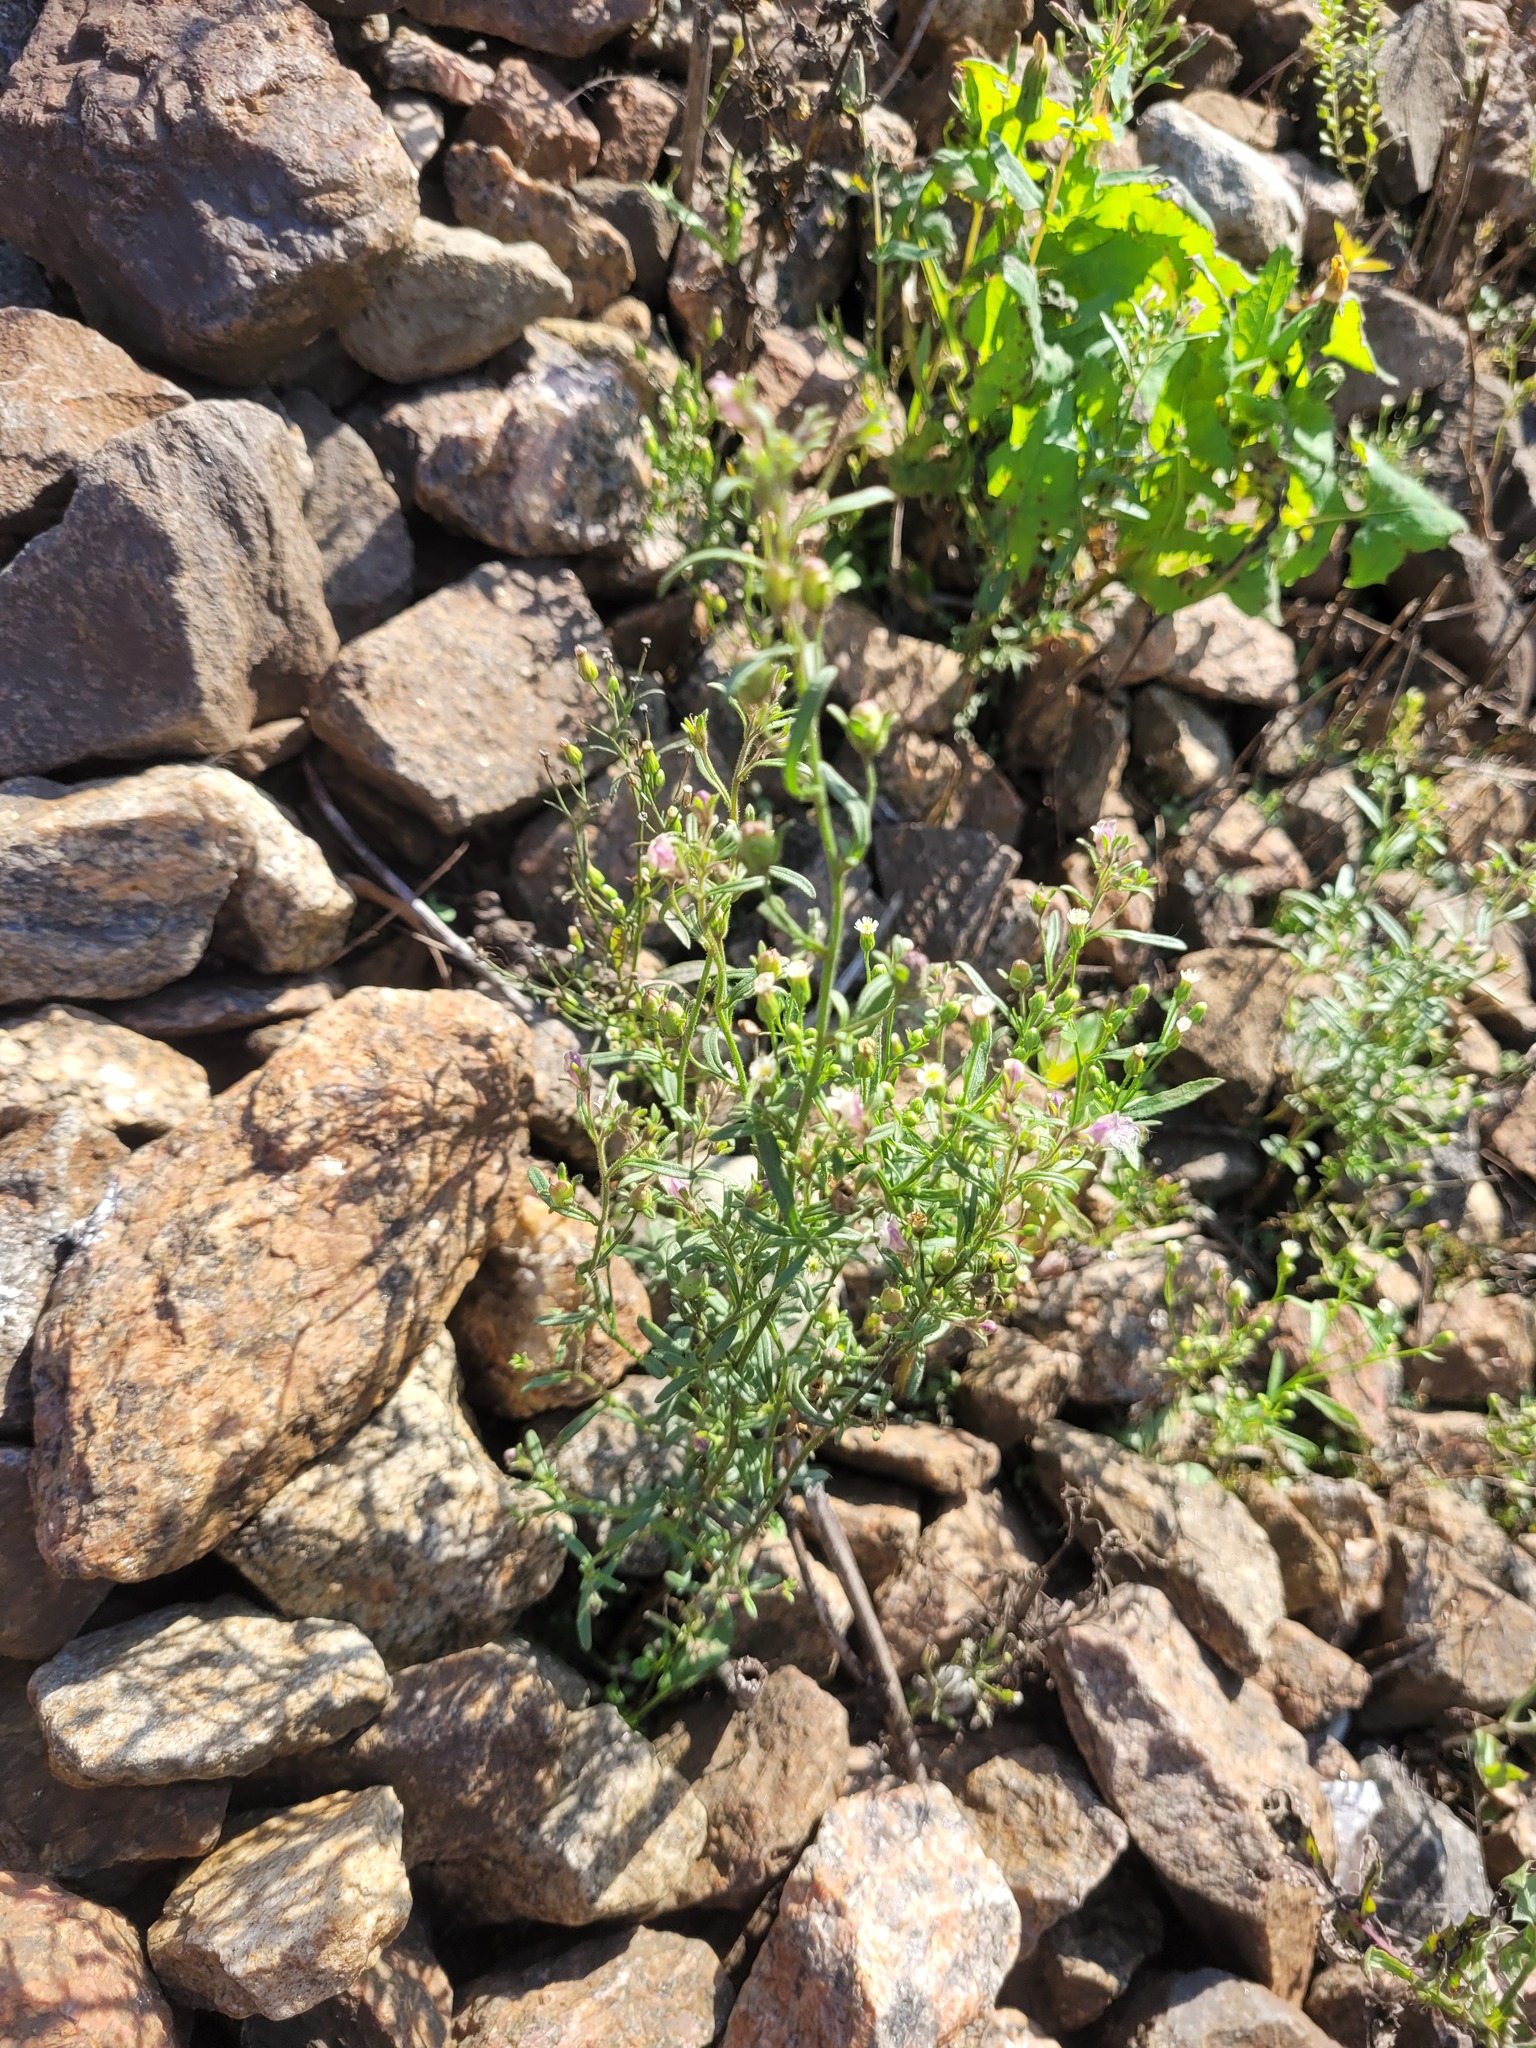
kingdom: Plantae
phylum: Tracheophyta
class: Magnoliopsida
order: Lamiales
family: Plantaginaceae
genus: Chaenorhinum
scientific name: Chaenorhinum minus
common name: Dwarf snapdragon
